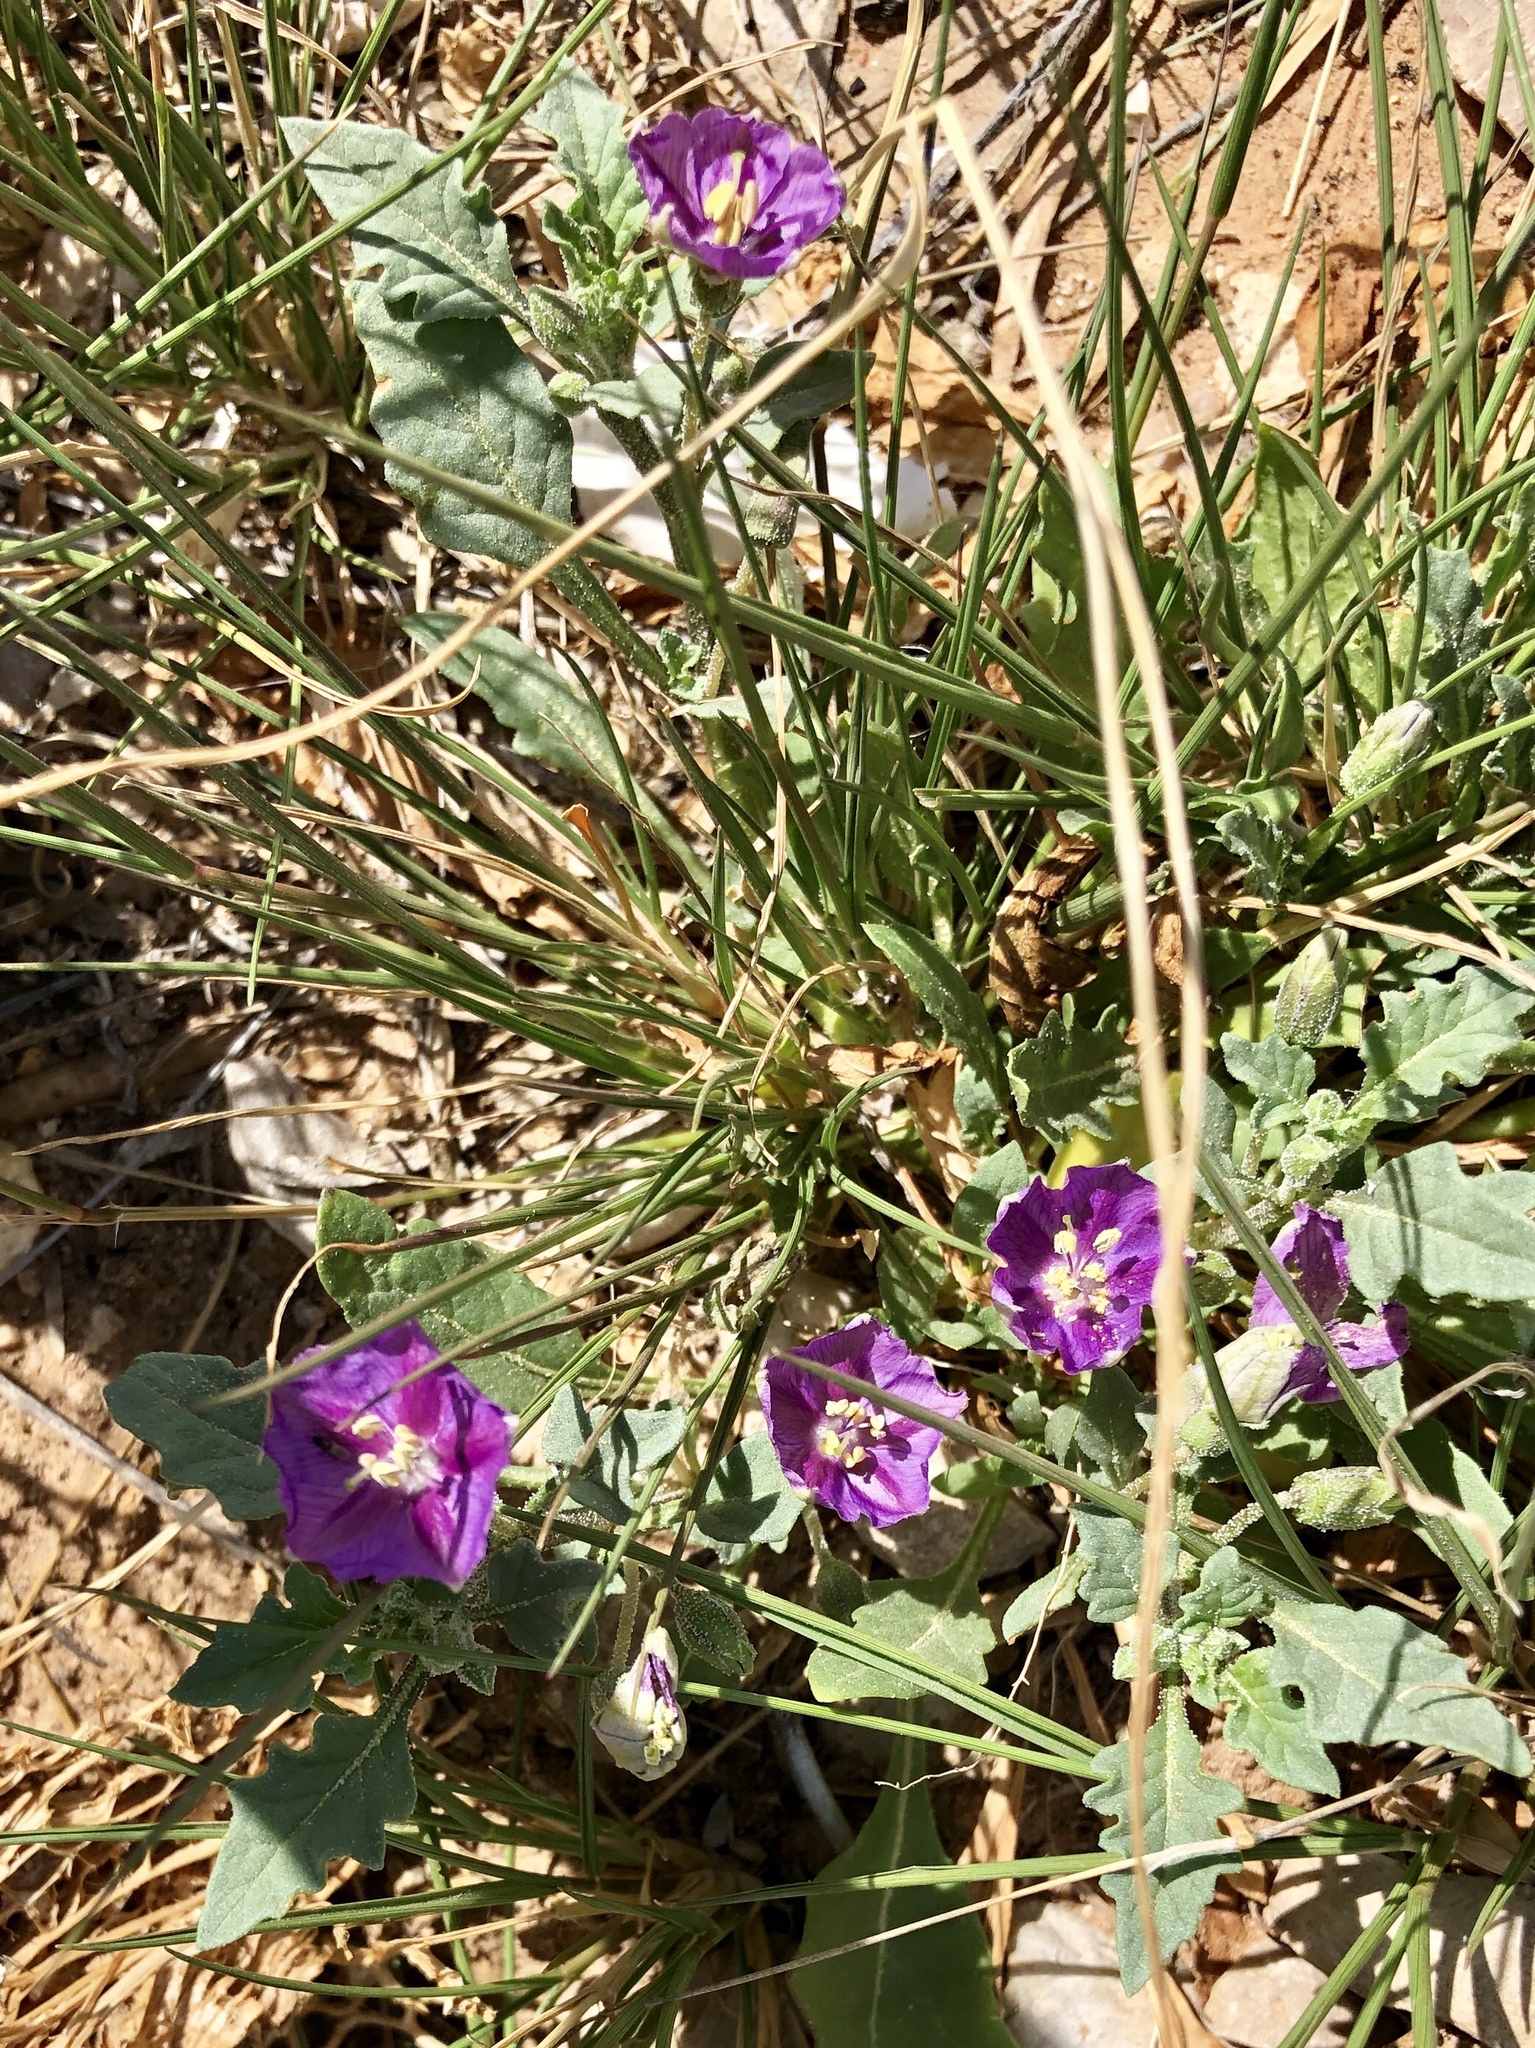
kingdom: Plantae
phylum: Tracheophyta
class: Magnoliopsida
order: Solanales
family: Solanaceae
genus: Quincula
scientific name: Quincula lobata
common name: Purple-ground-cherry
